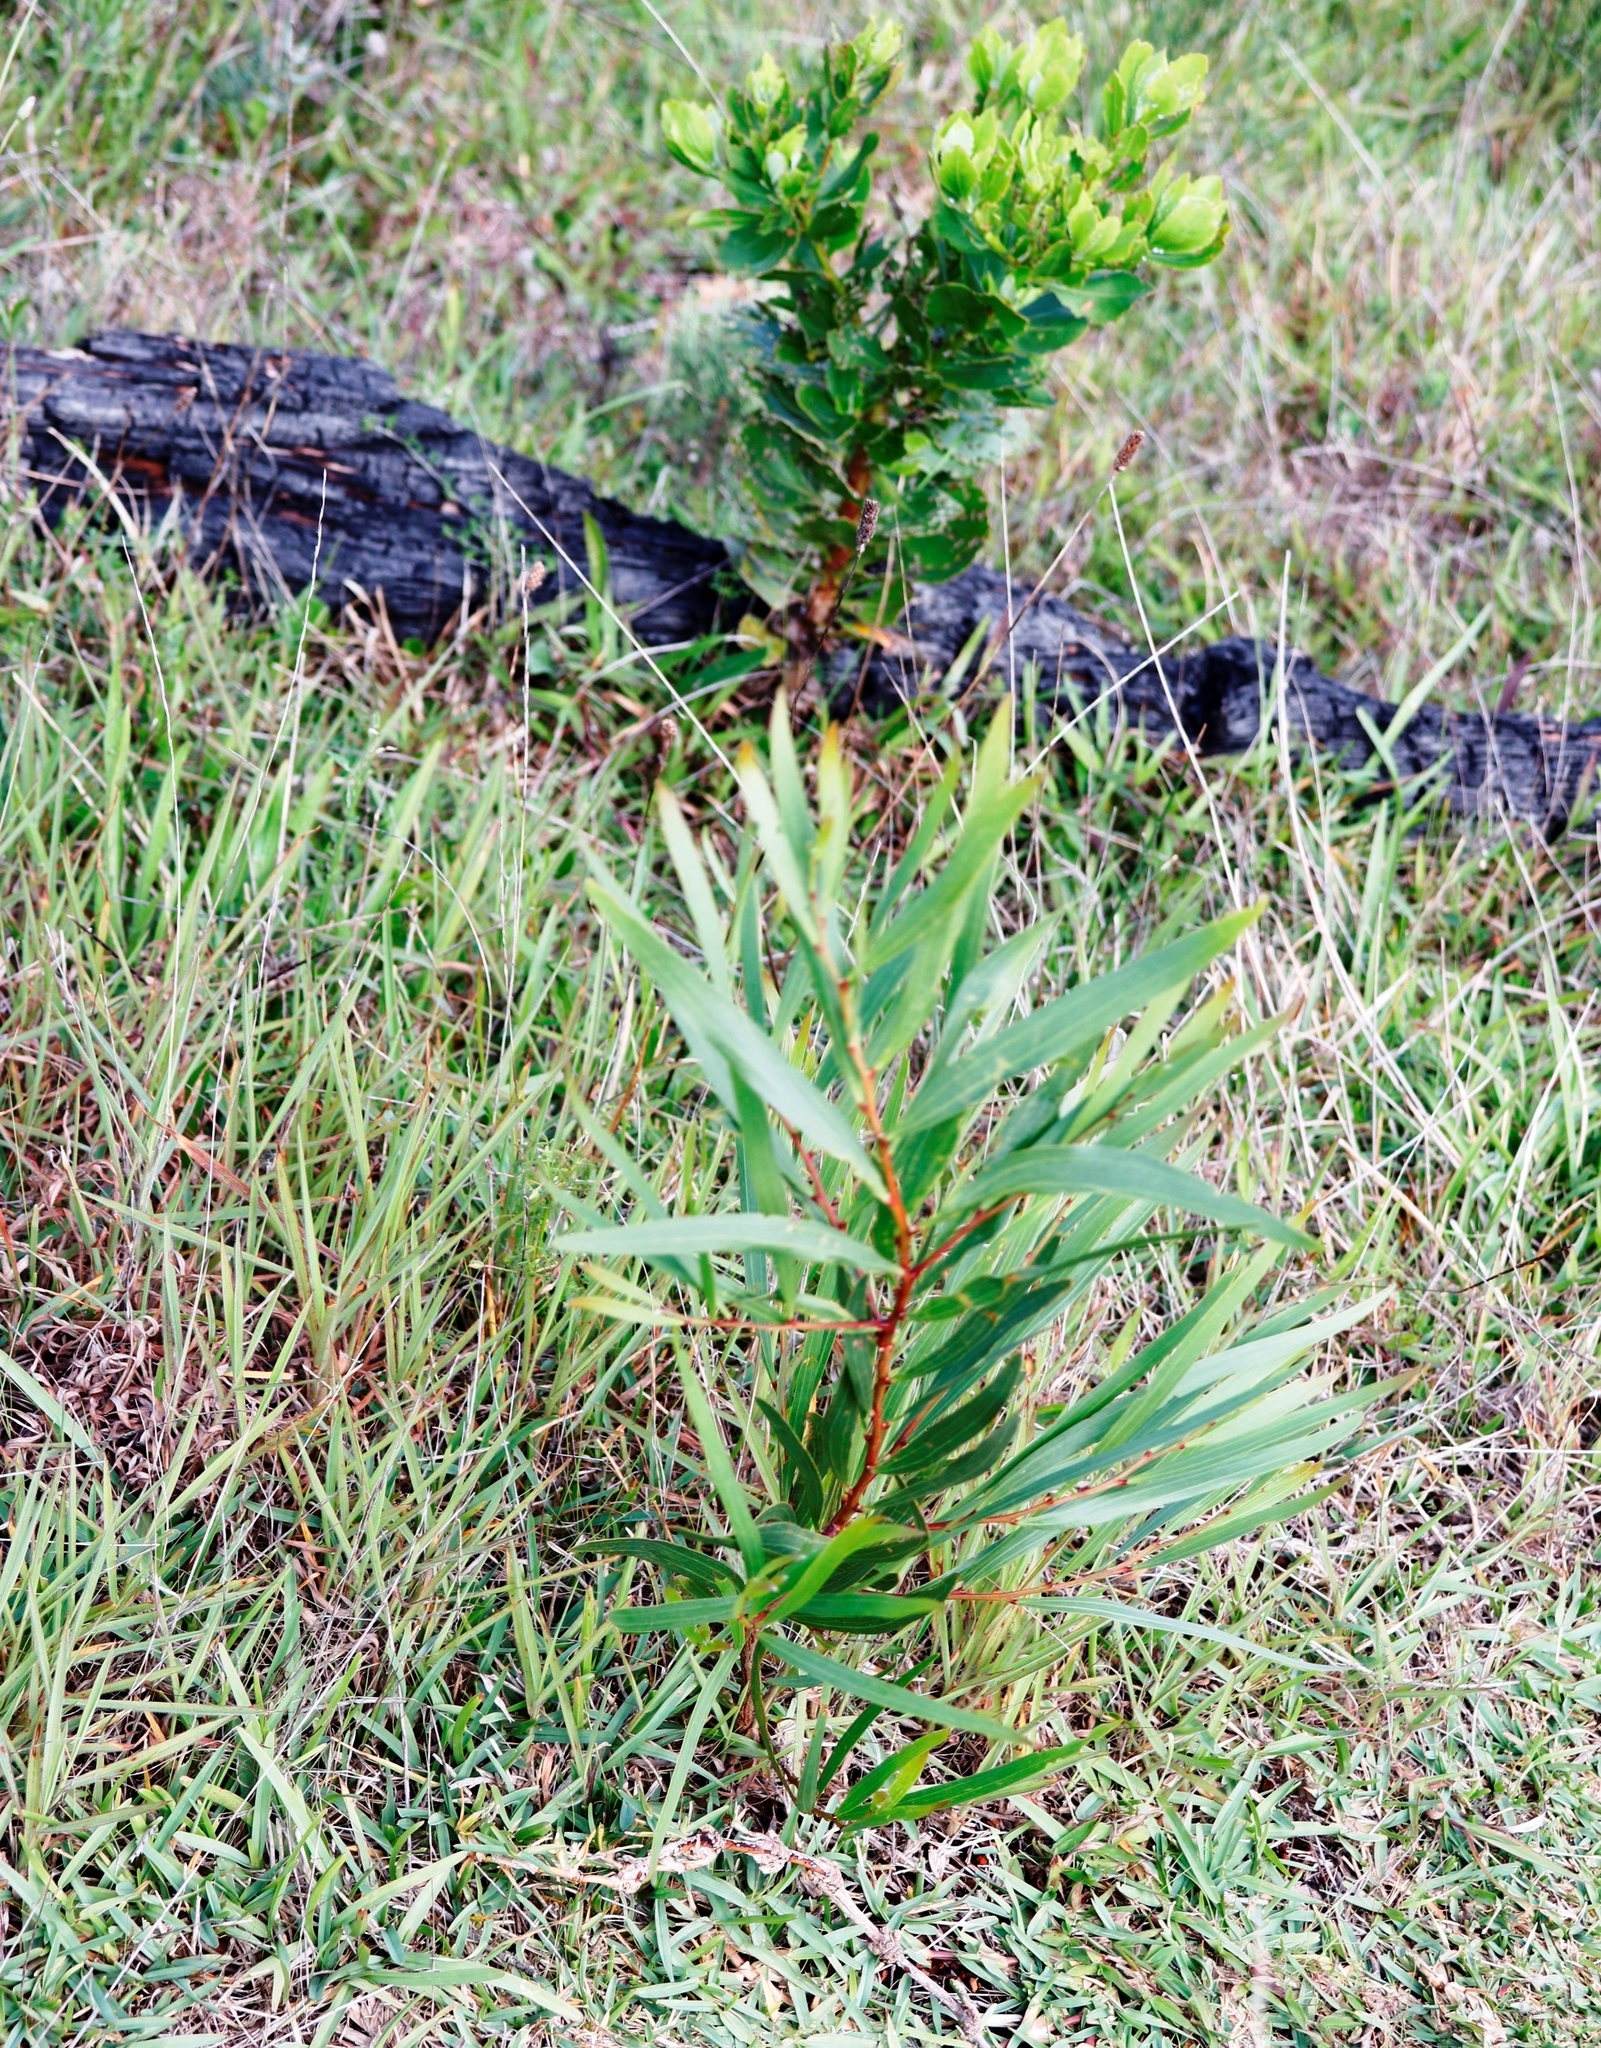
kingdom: Plantae
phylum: Tracheophyta
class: Magnoliopsida
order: Fabales
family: Fabaceae
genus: Acacia
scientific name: Acacia longifolia
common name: Sydney golden wattle
